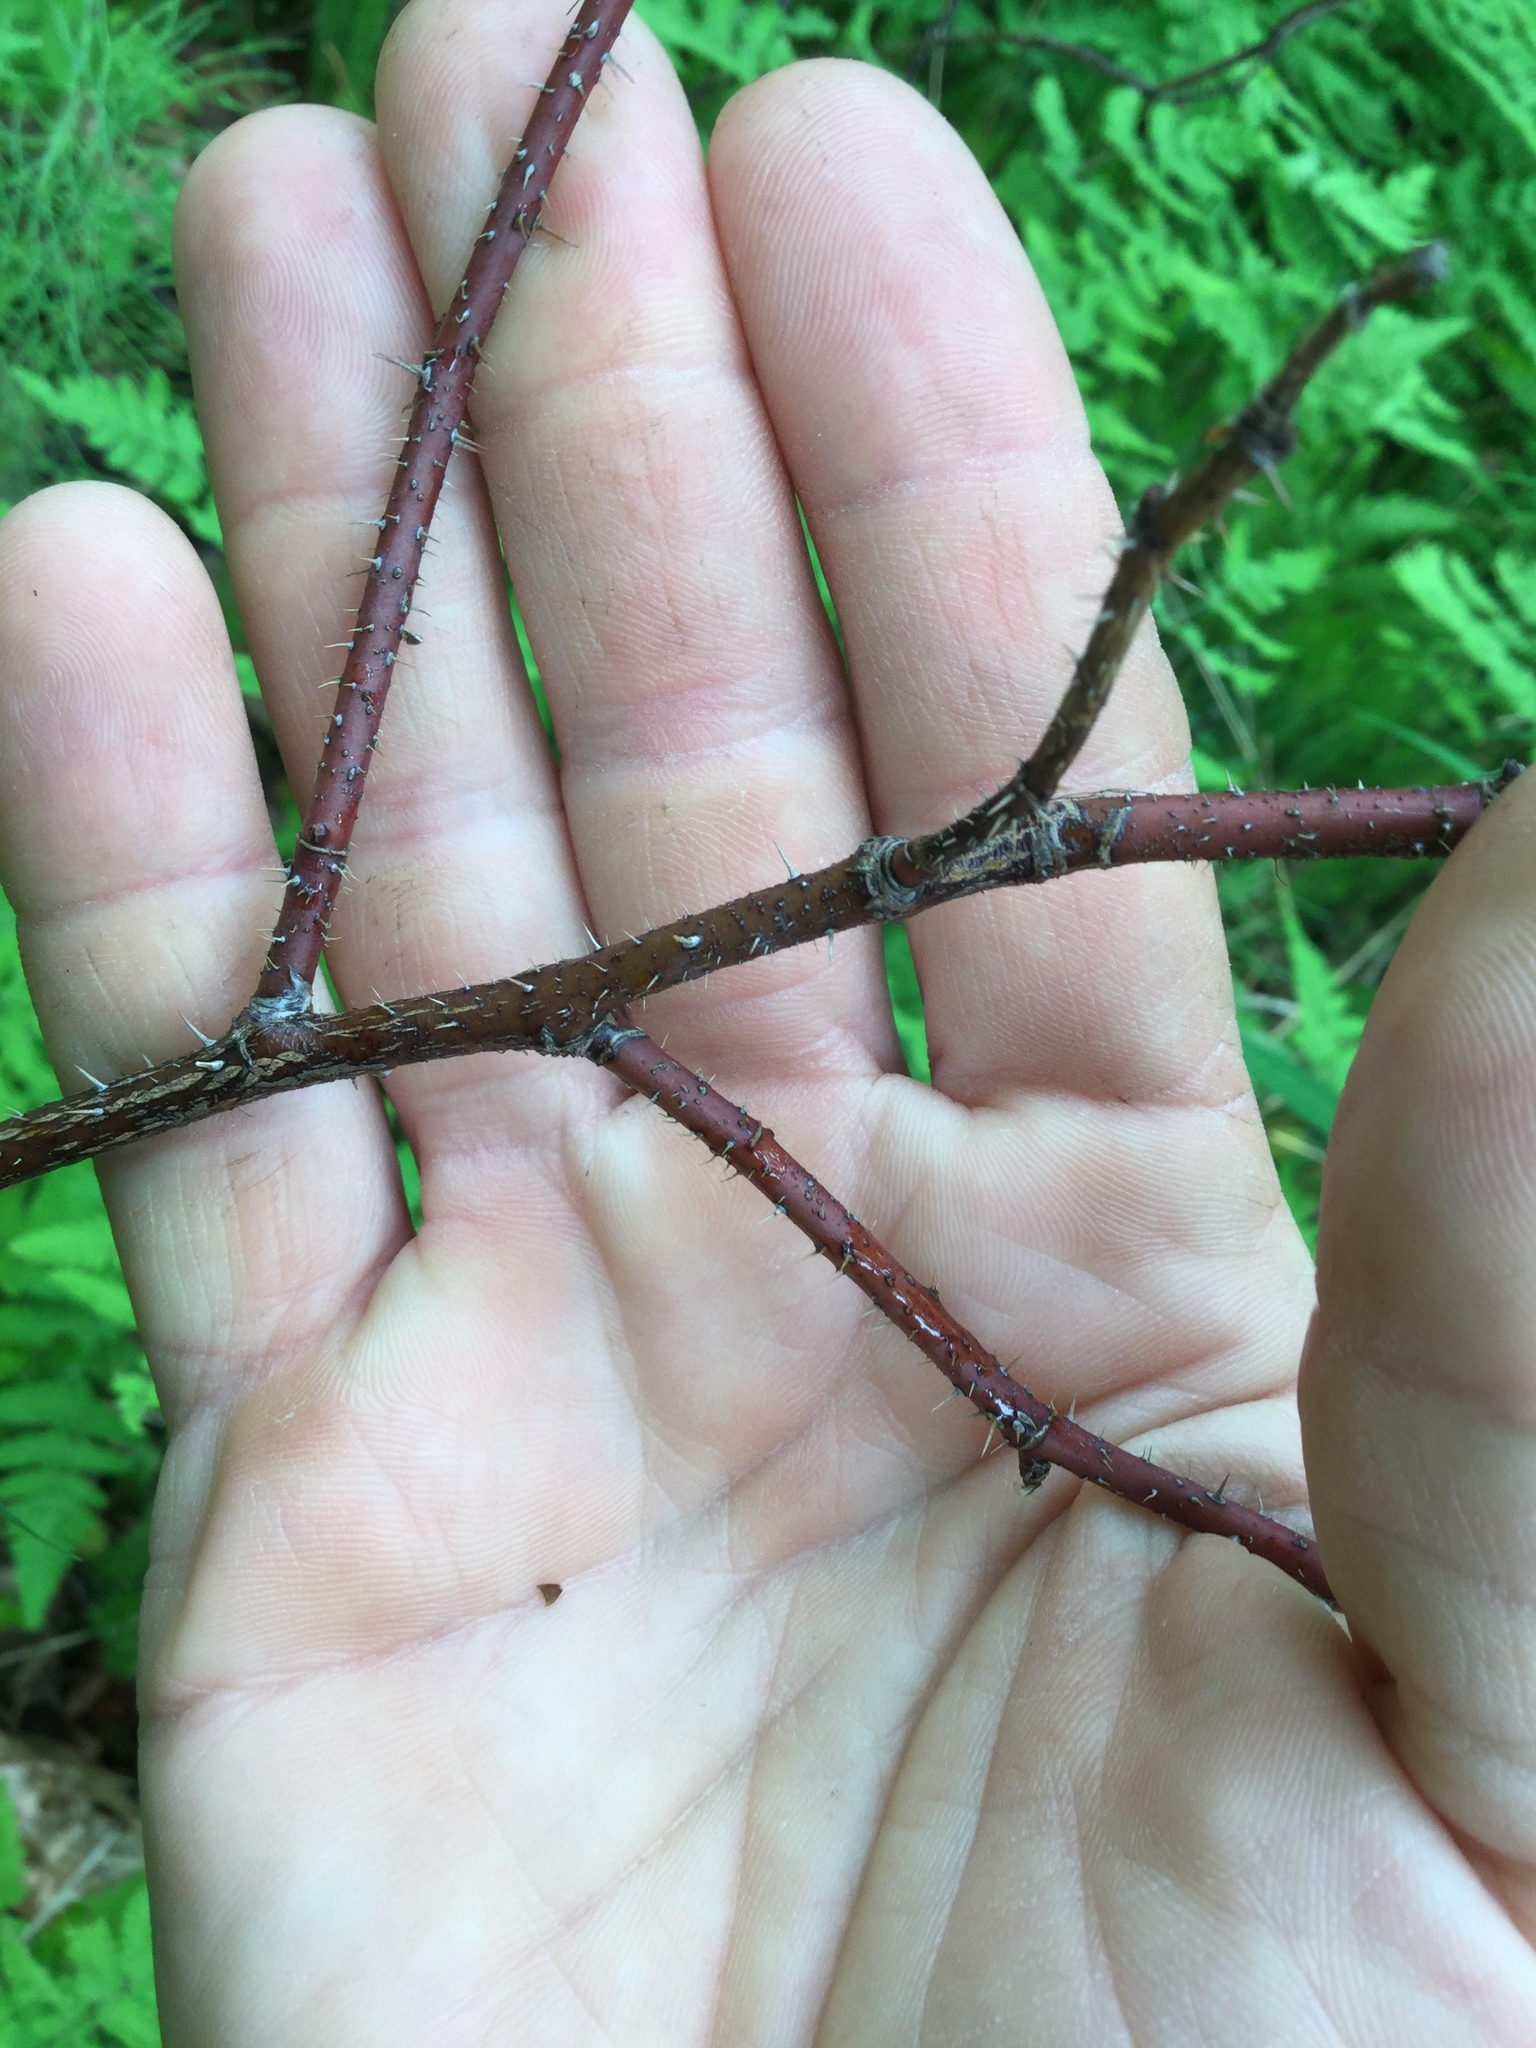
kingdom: Plantae
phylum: Tracheophyta
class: Magnoliopsida
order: Rosales
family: Rosaceae
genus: Rosa
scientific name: Rosa acicularis
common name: Prickly rose
